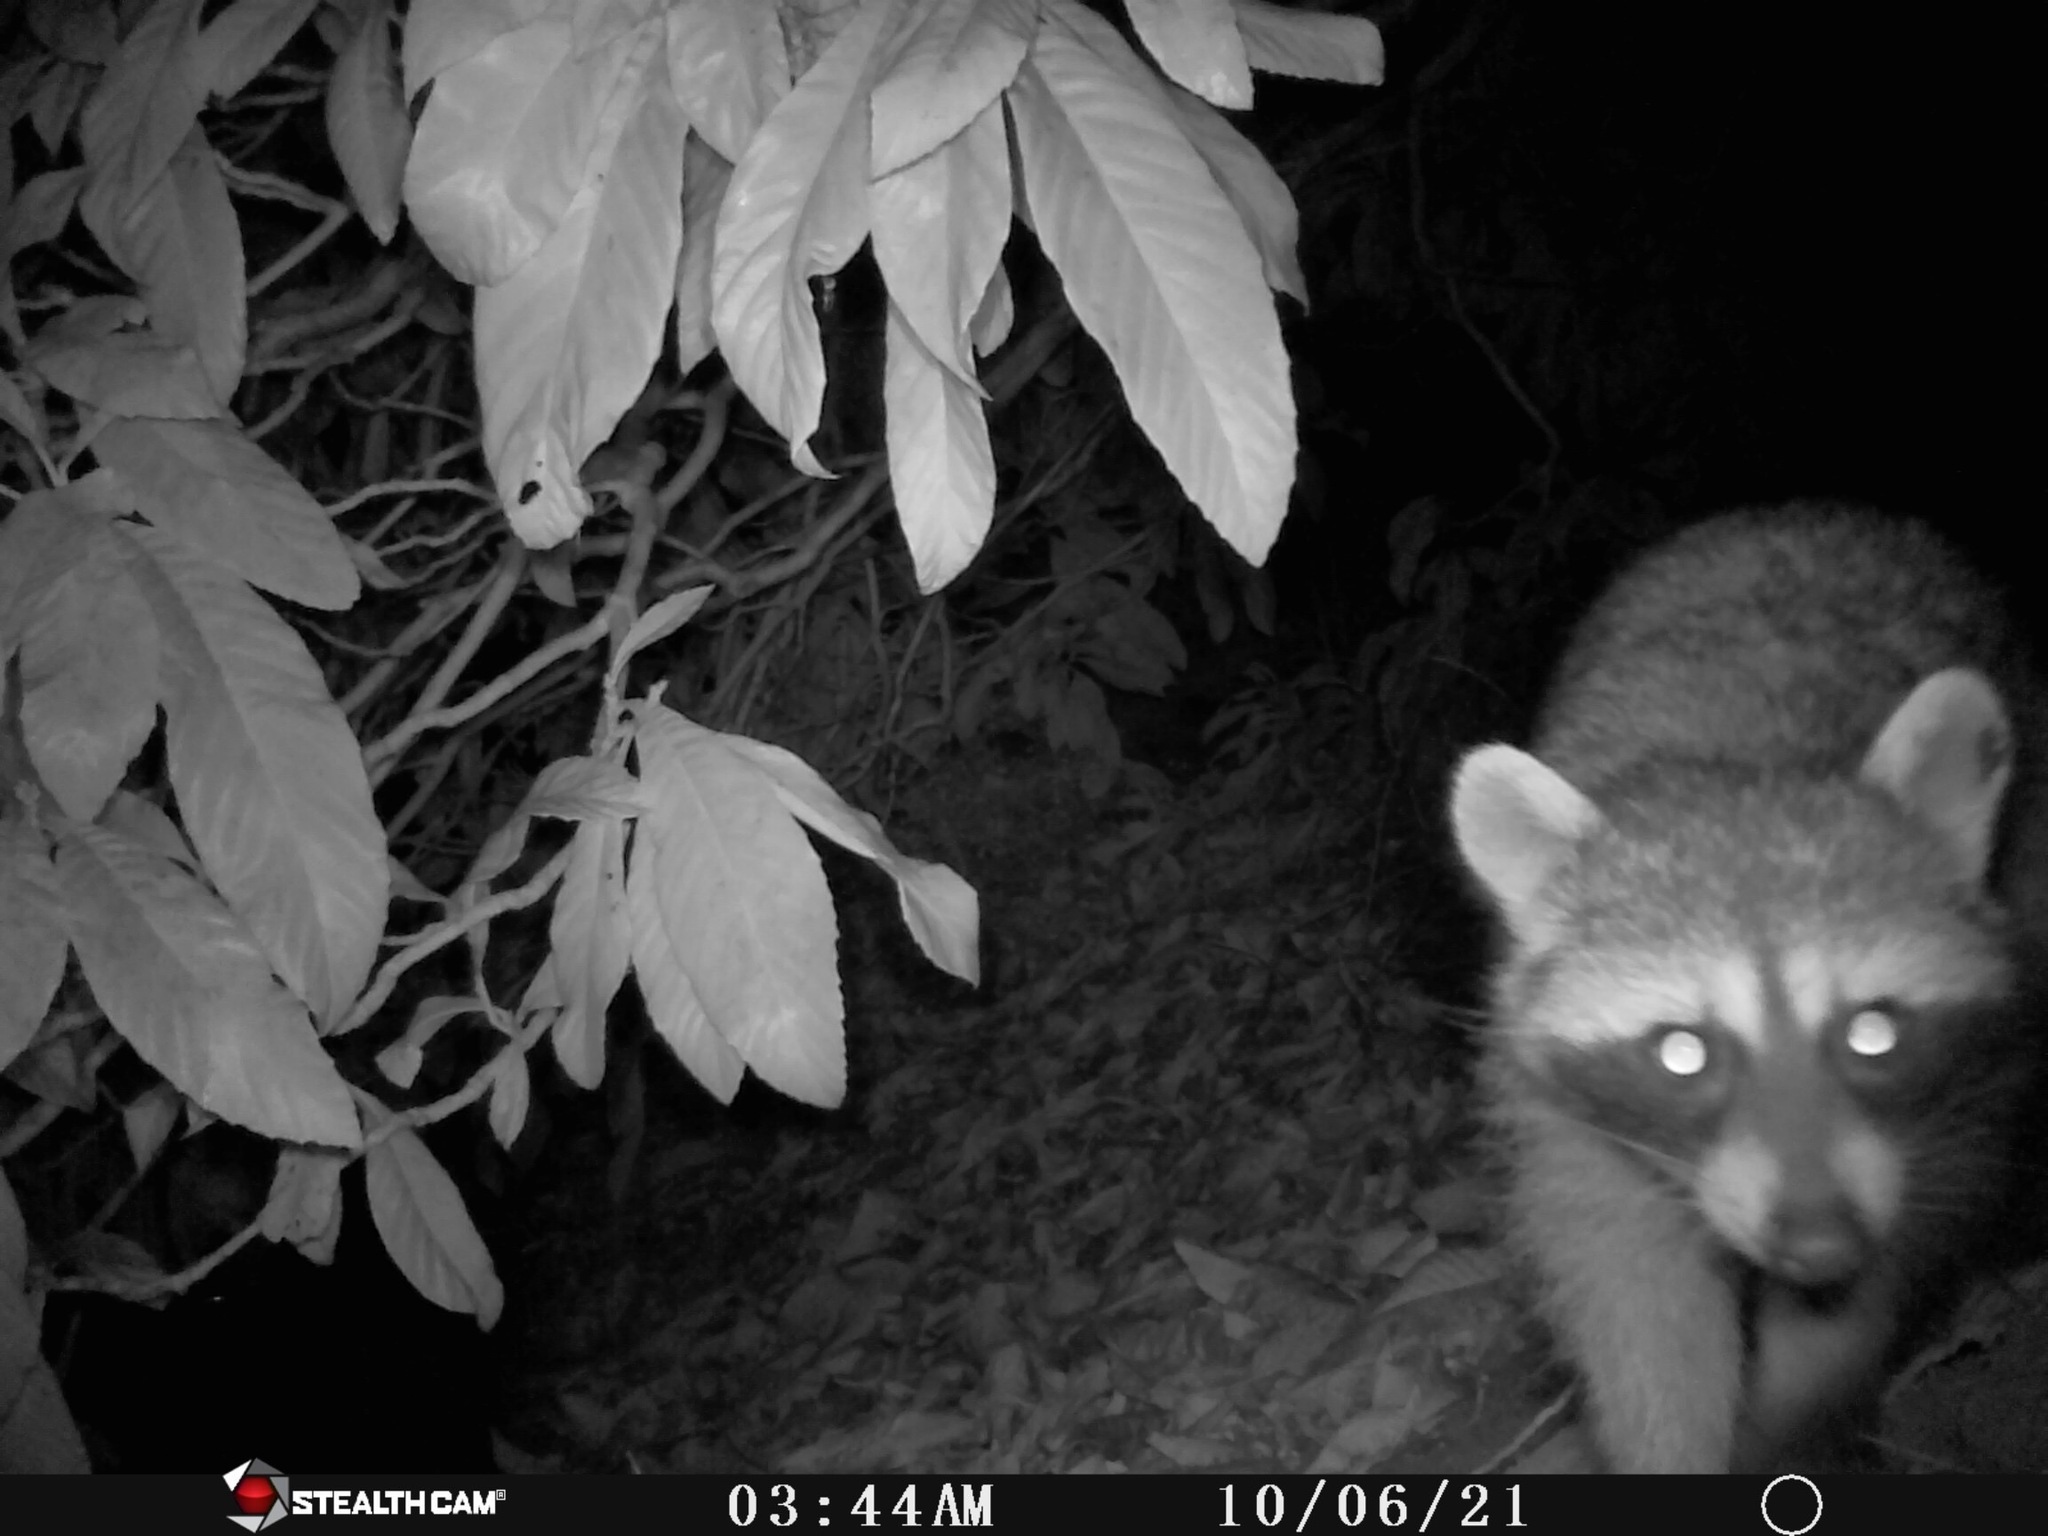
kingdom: Animalia
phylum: Chordata
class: Mammalia
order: Carnivora
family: Procyonidae
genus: Procyon
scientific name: Procyon lotor
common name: Raccoon
